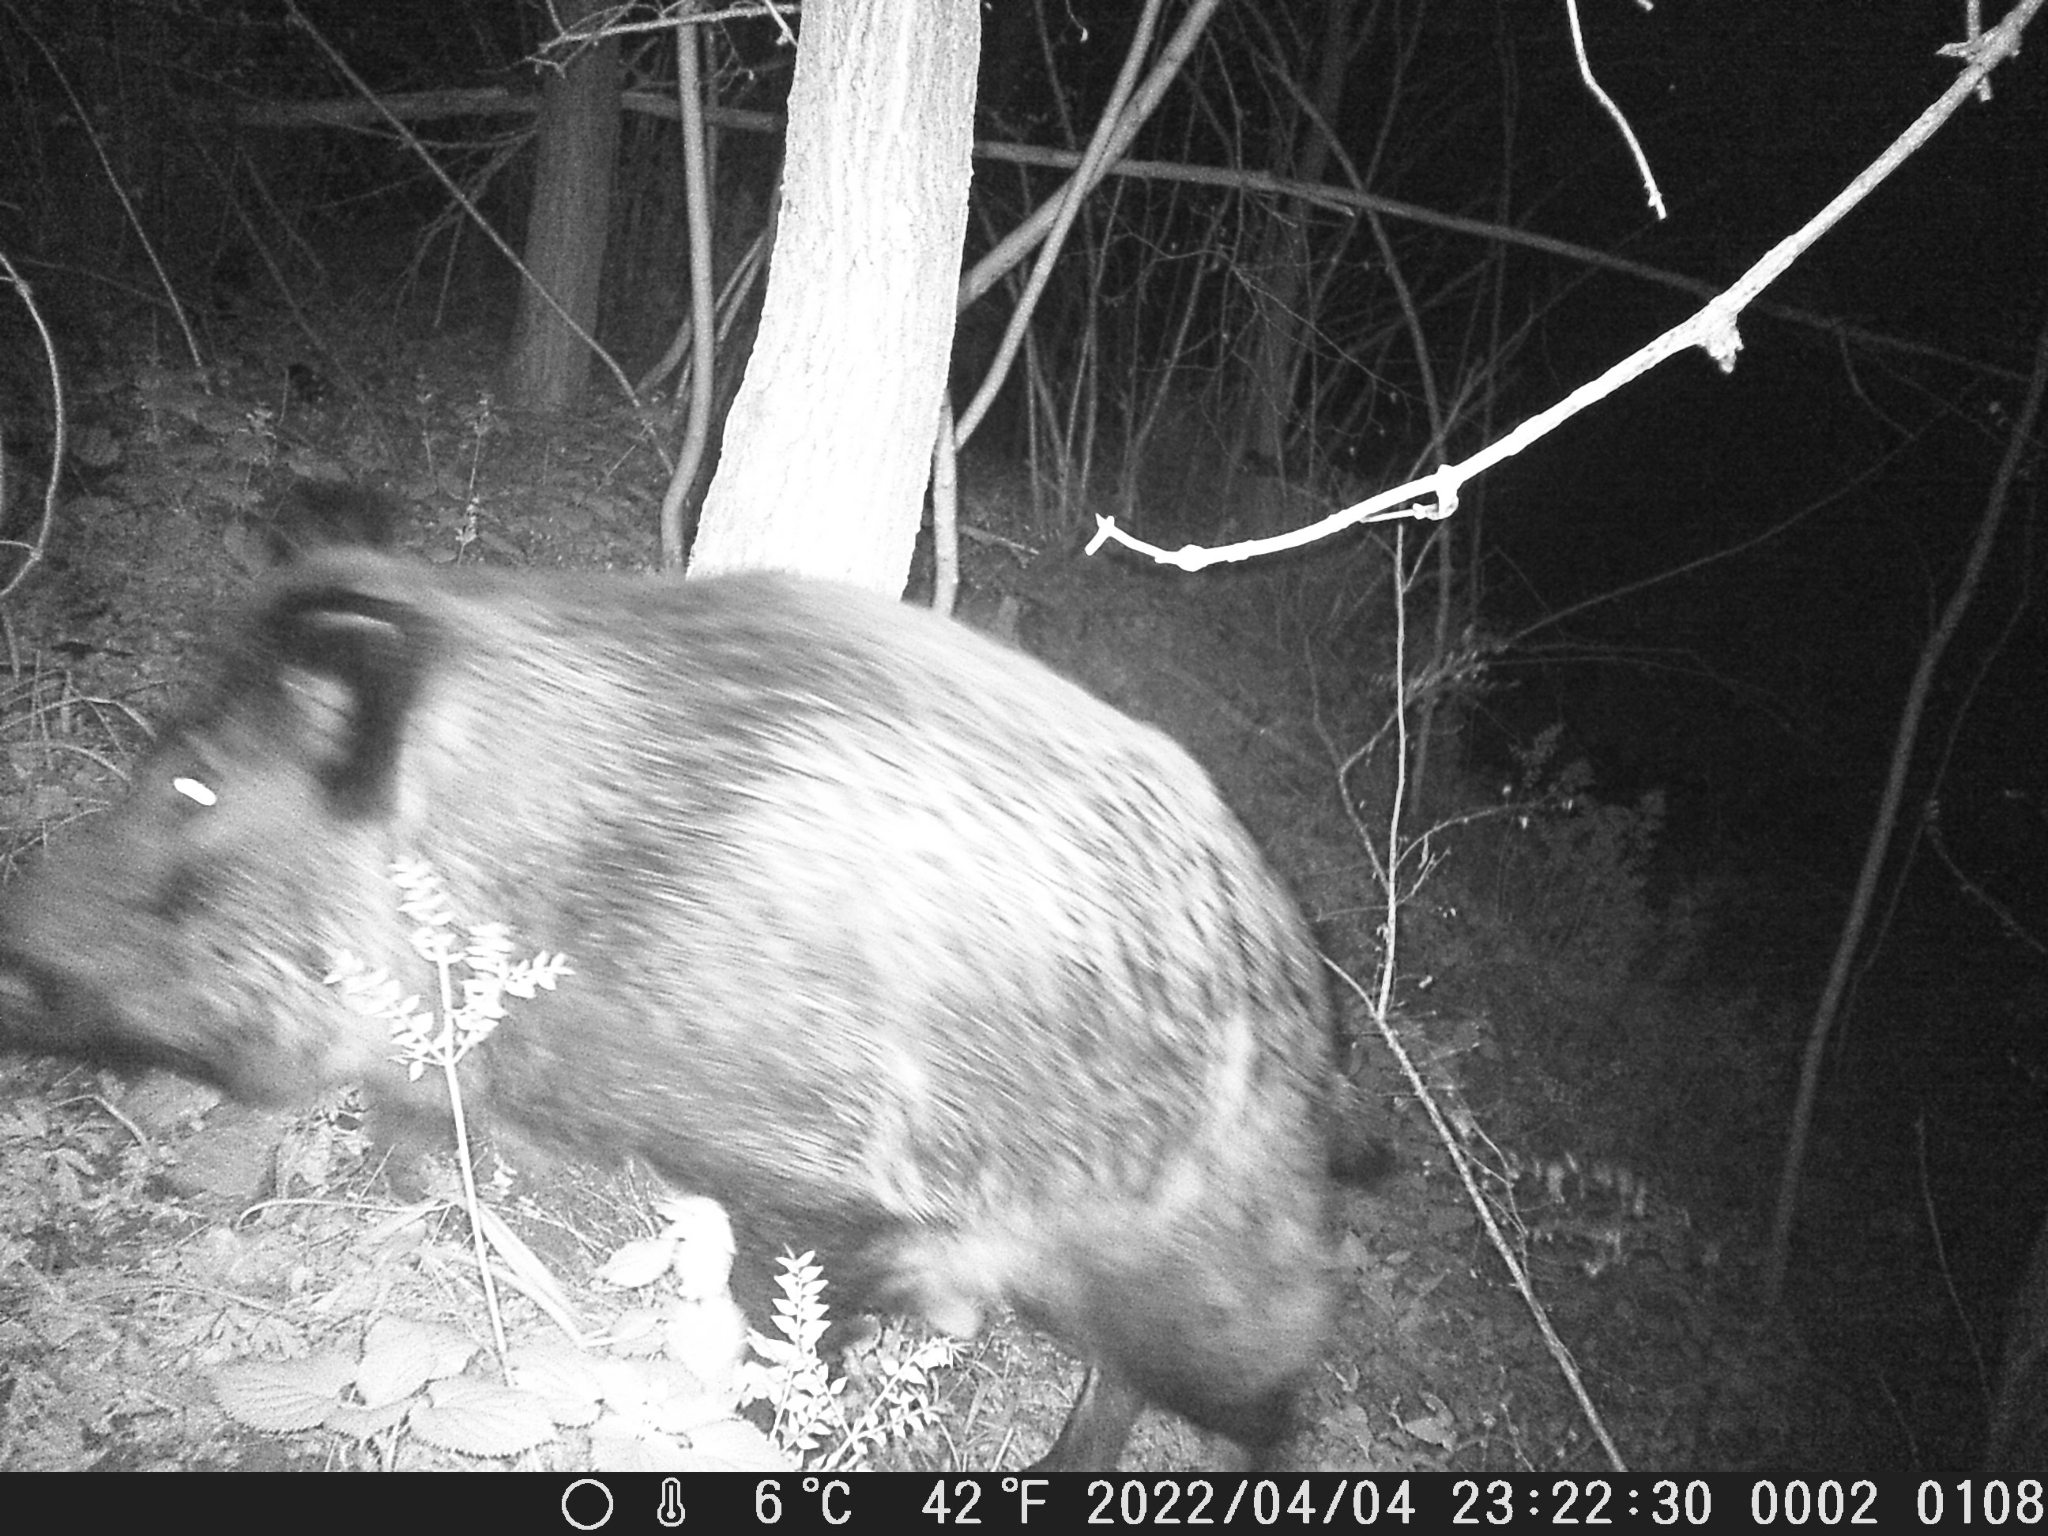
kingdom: Animalia
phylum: Chordata
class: Mammalia
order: Artiodactyla
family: Suidae
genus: Sus
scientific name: Sus scrofa
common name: Wild boar
